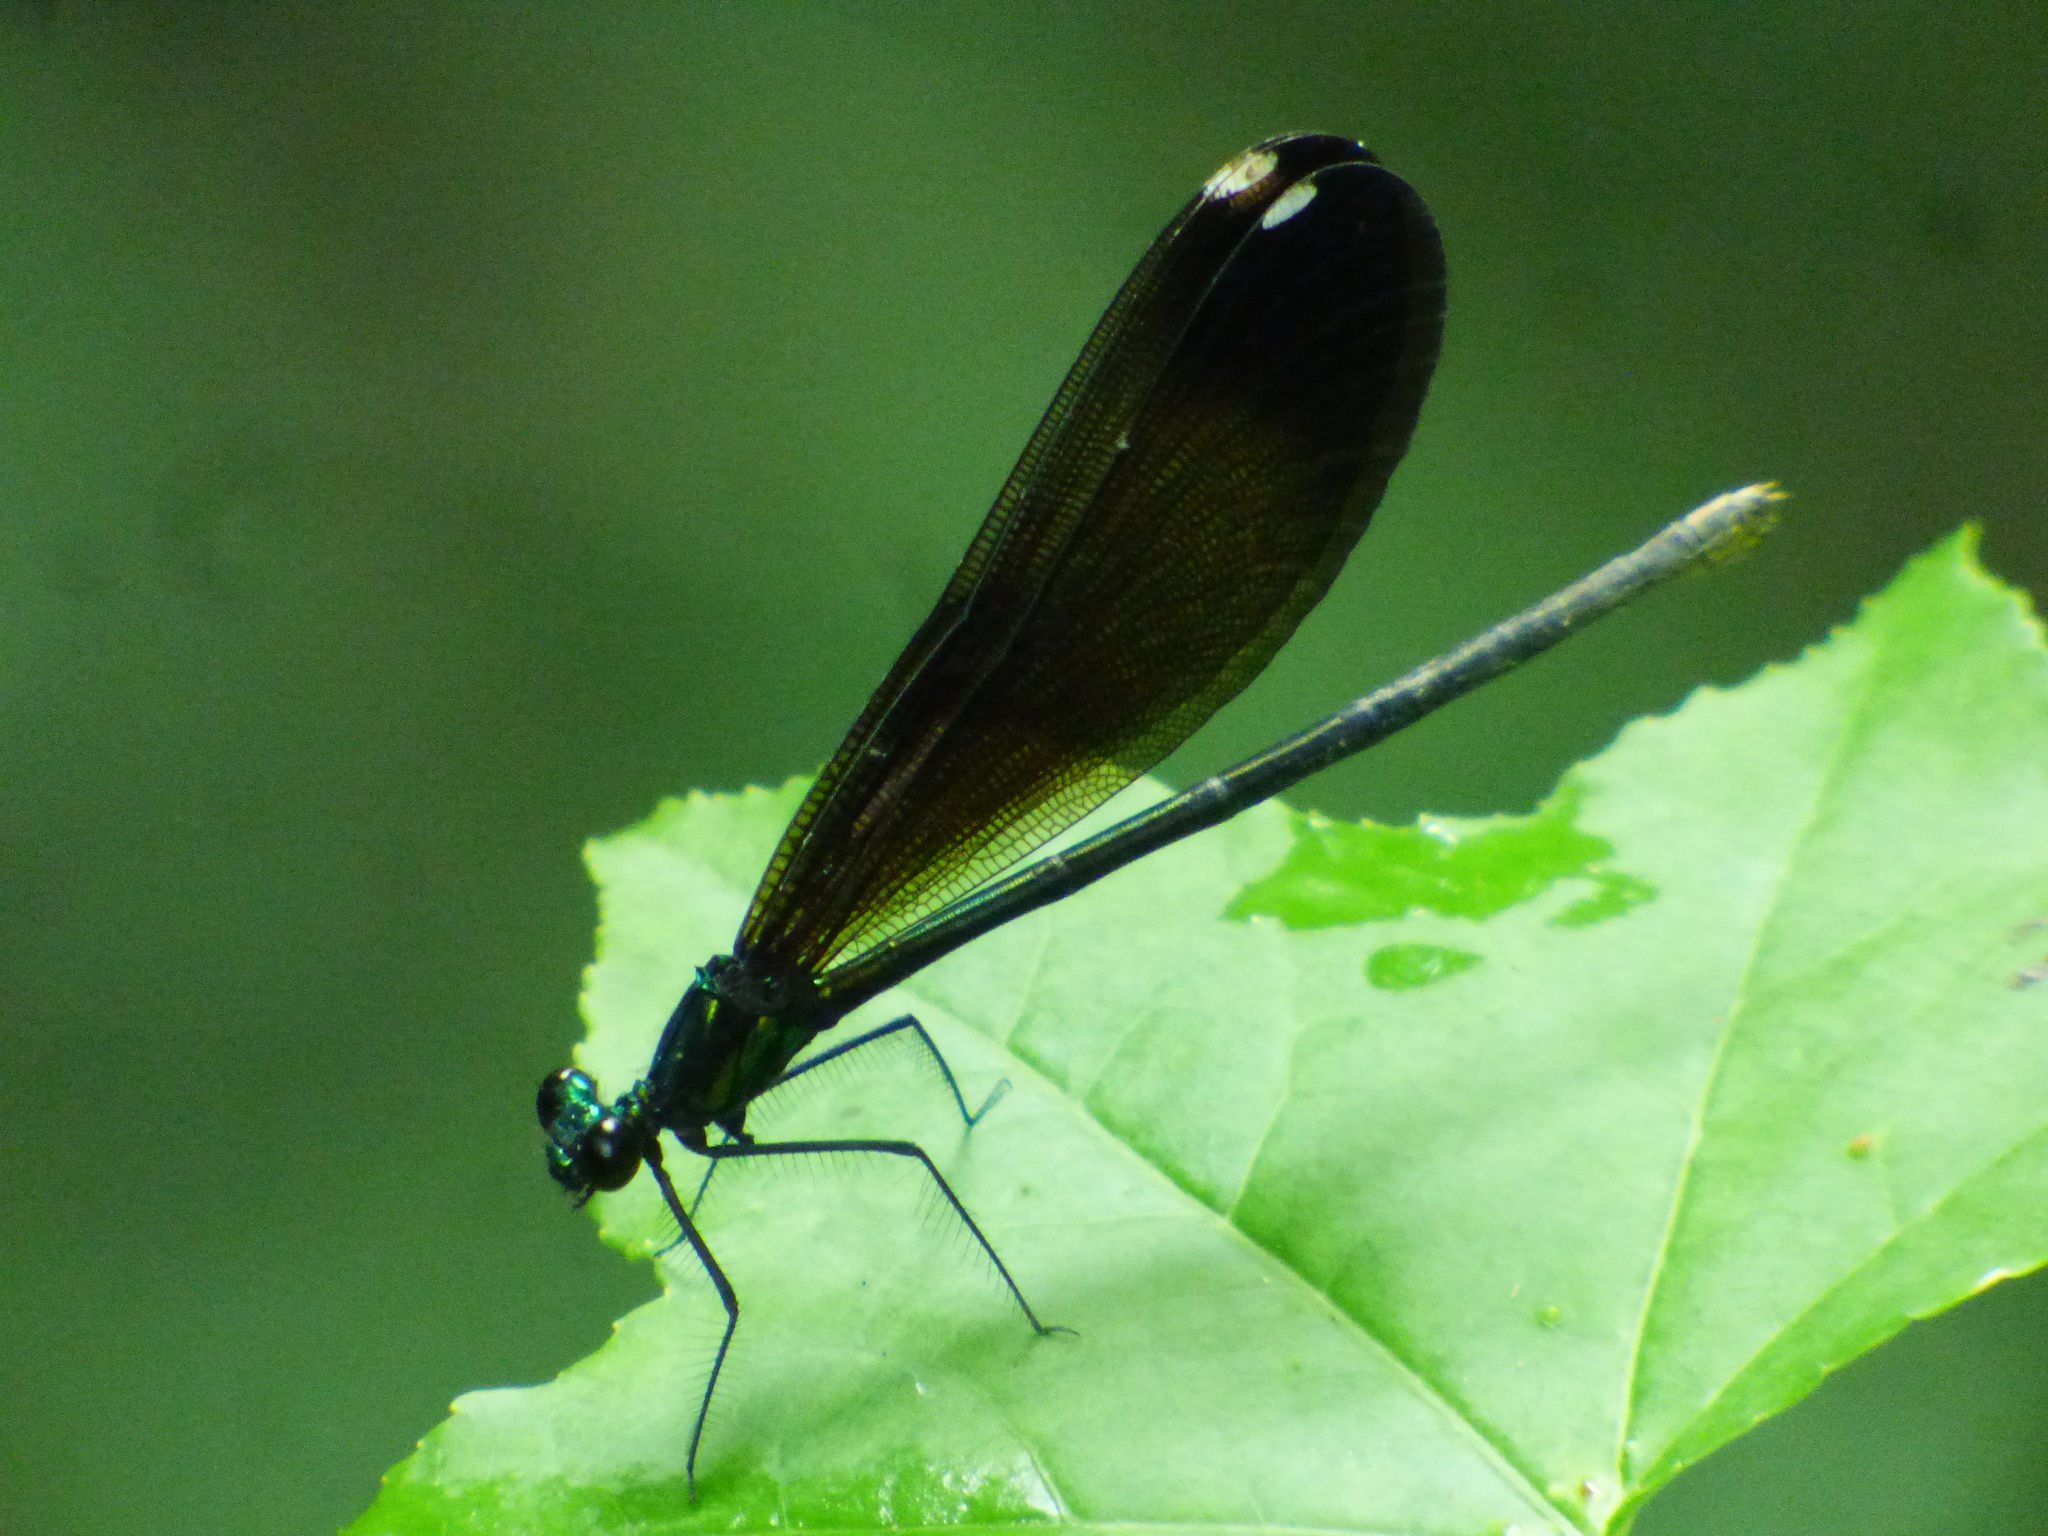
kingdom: Animalia
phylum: Arthropoda
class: Insecta
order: Odonata
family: Calopterygidae
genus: Calopteryx
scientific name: Calopteryx maculata
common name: Ebony jewelwing
